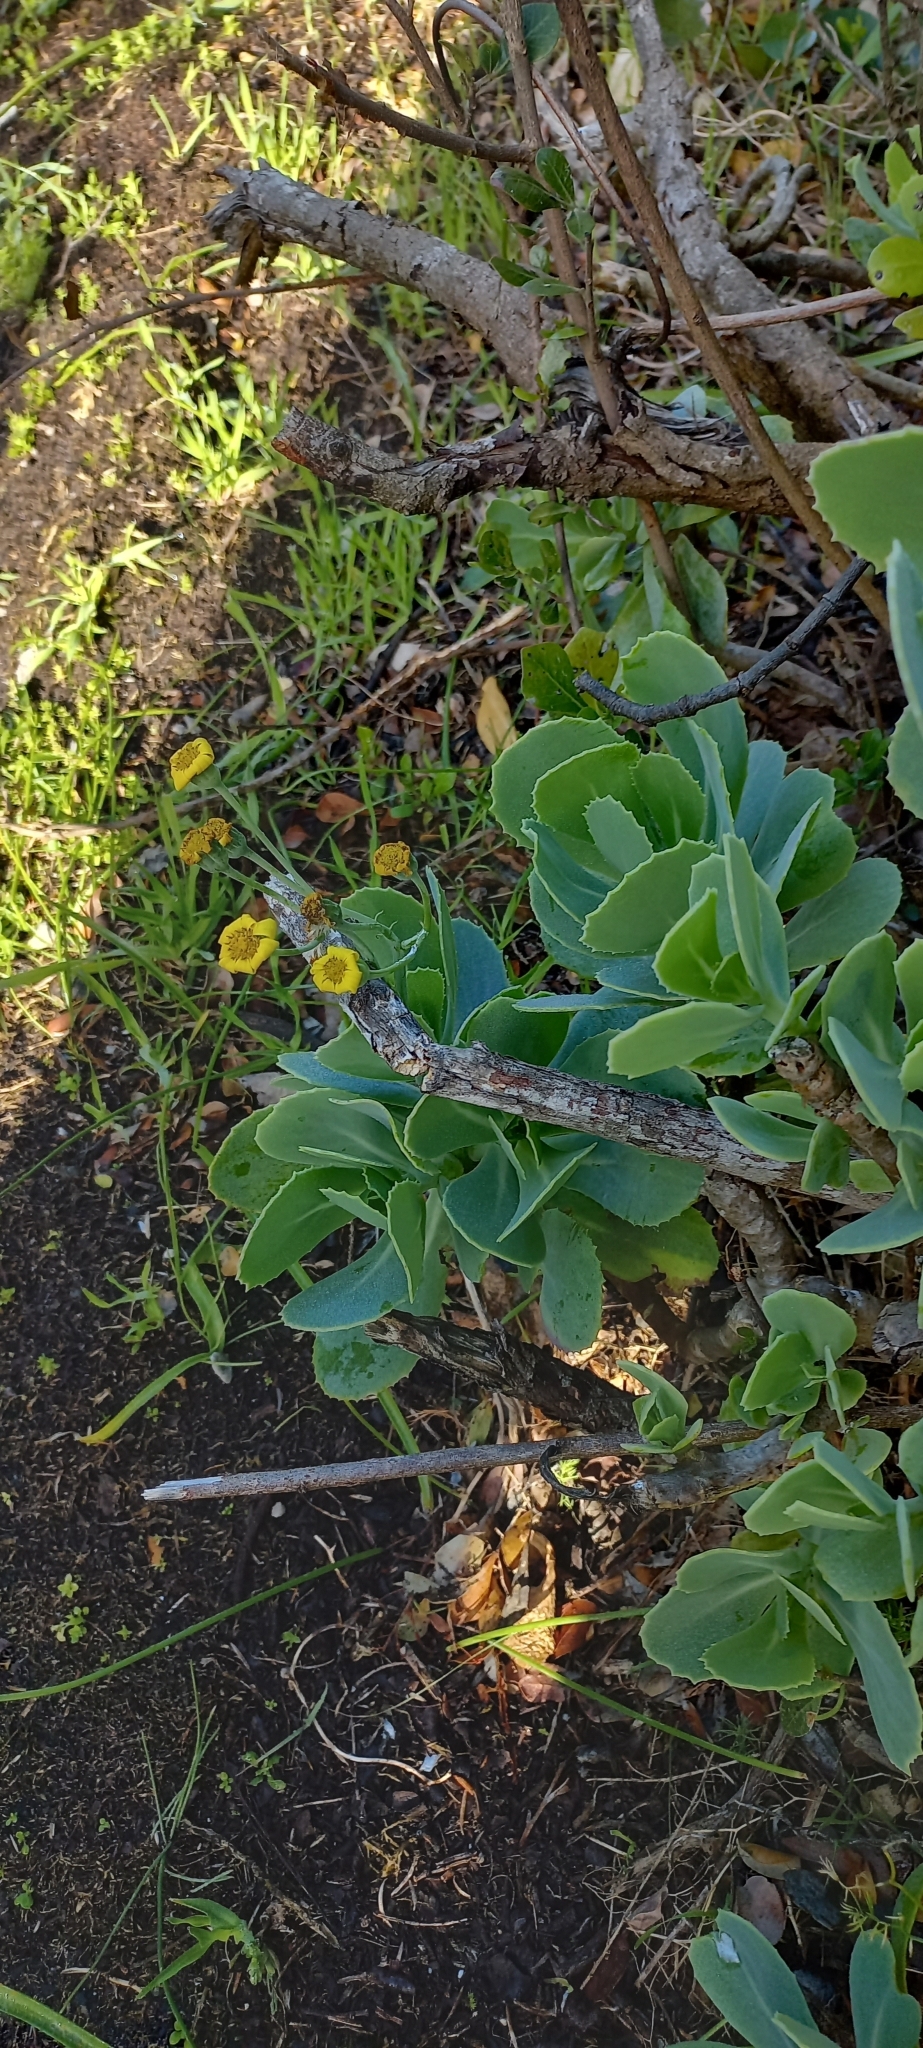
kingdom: Plantae
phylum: Tracheophyta
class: Magnoliopsida
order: Asterales
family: Asteraceae
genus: Othonna
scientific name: Othonna dentata
